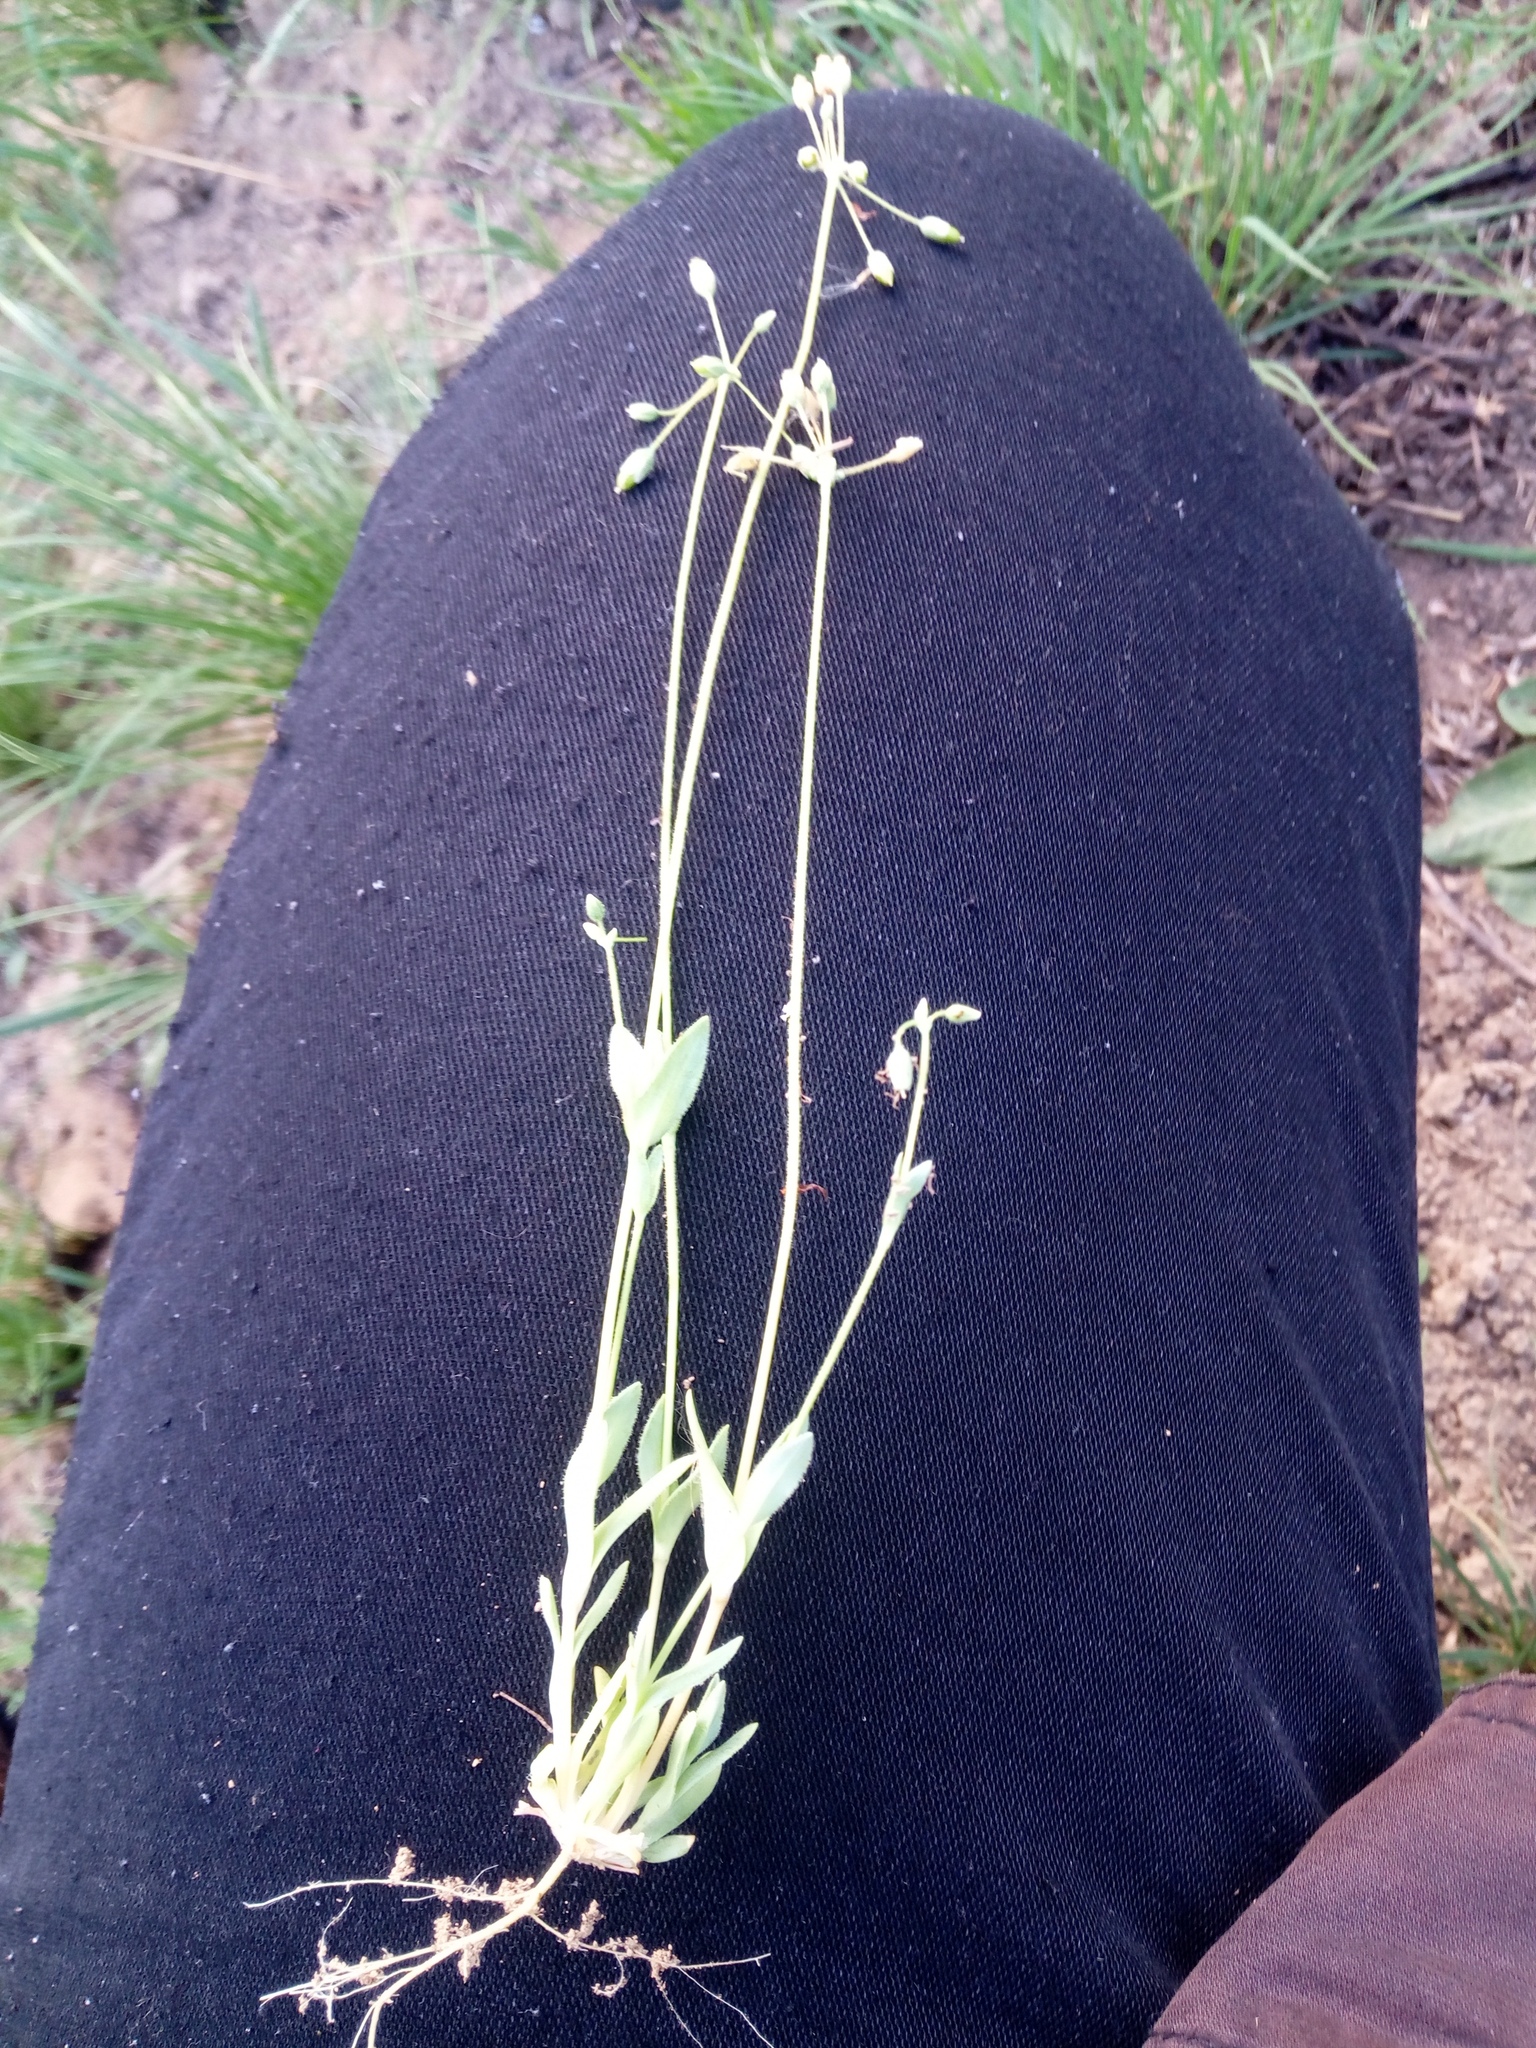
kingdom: Plantae
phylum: Tracheophyta
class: Magnoliopsida
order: Caryophyllales
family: Caryophyllaceae
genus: Holosteum
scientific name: Holosteum umbellatum
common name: Jagged chickweed
